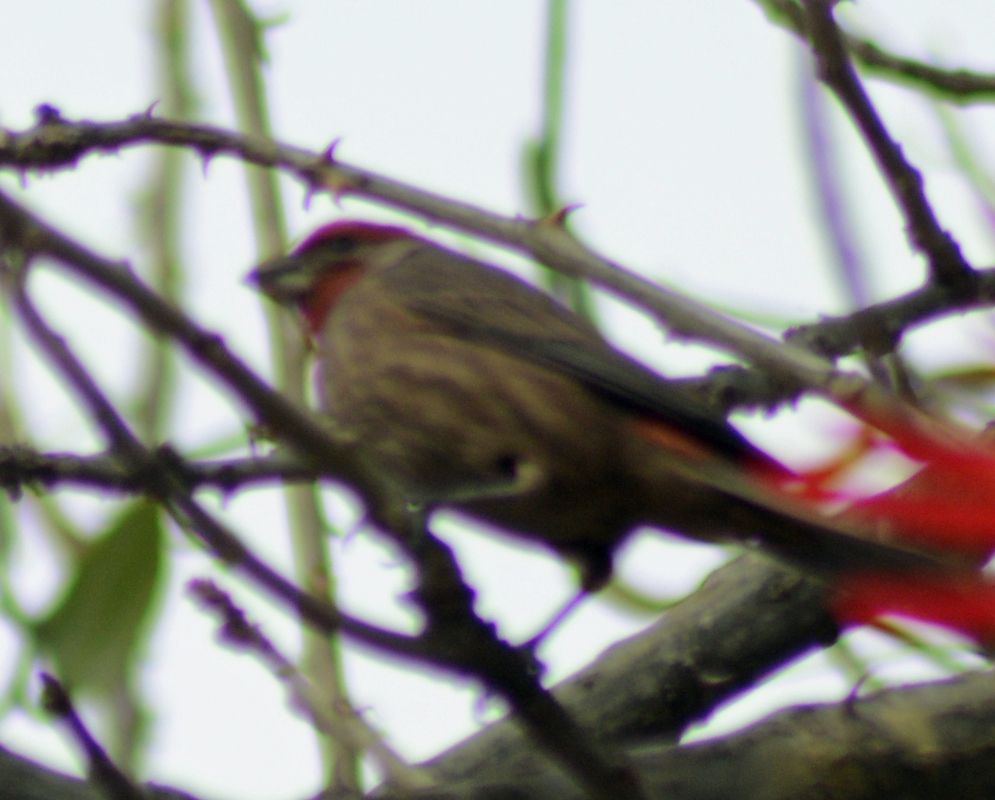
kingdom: Animalia
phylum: Chordata
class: Aves
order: Passeriformes
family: Fringillidae
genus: Haemorhous
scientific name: Haemorhous mexicanus
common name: House finch
